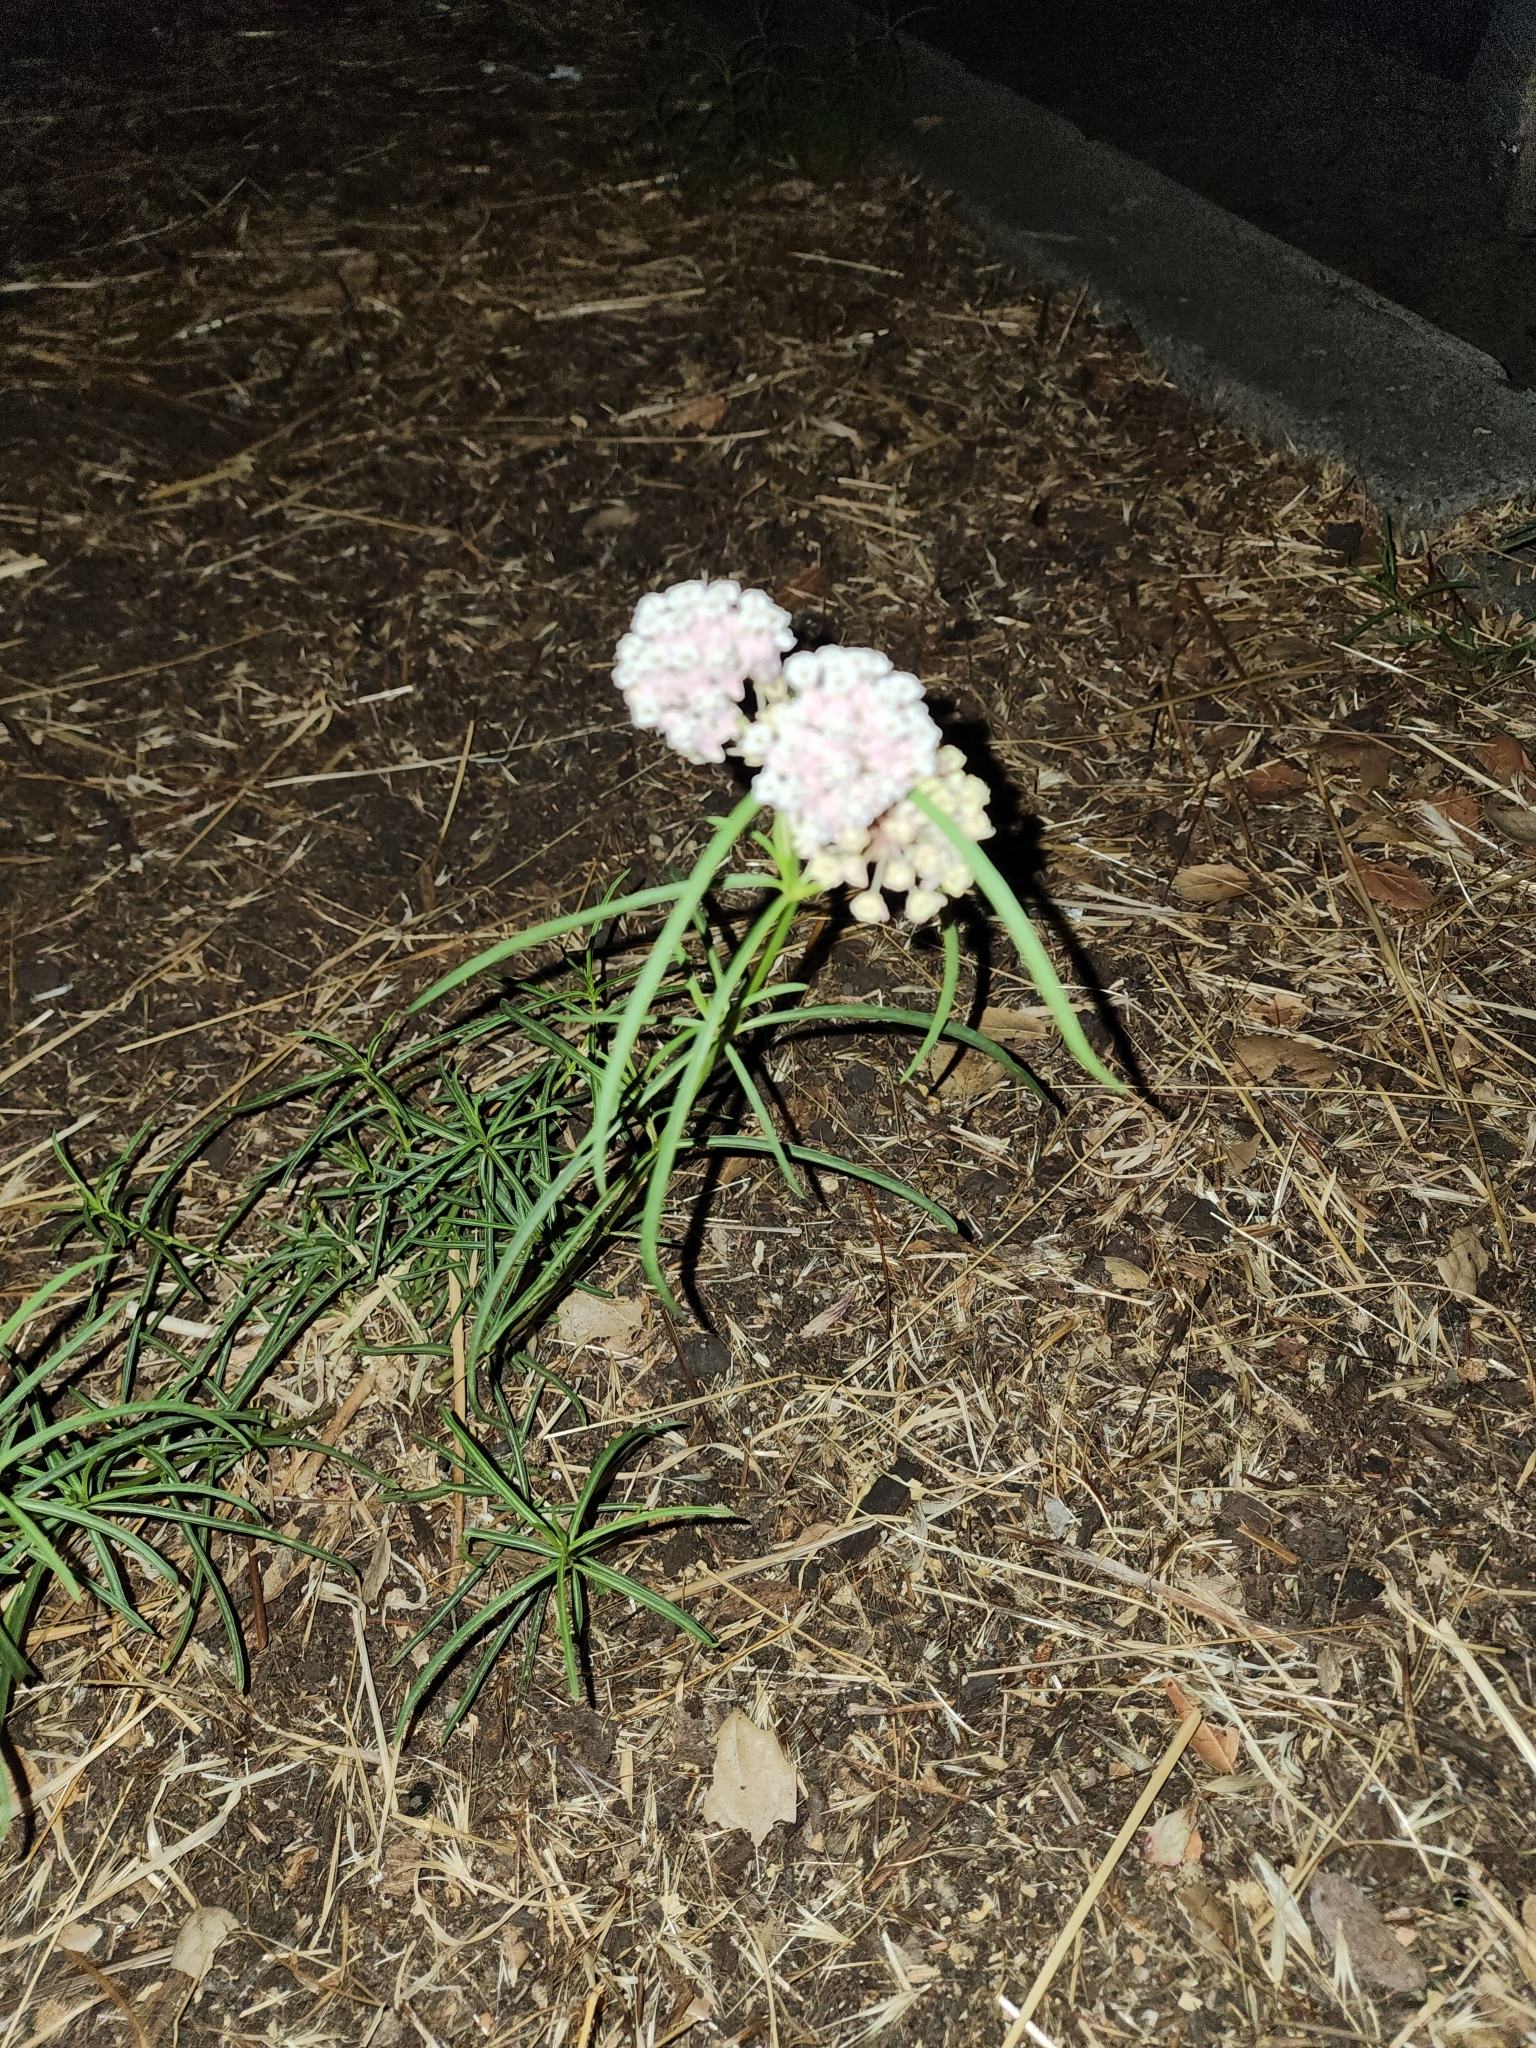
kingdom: Plantae
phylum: Tracheophyta
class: Magnoliopsida
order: Gentianales
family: Apocynaceae
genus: Asclepias
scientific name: Asclepias fascicularis
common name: Mexican milkweed
